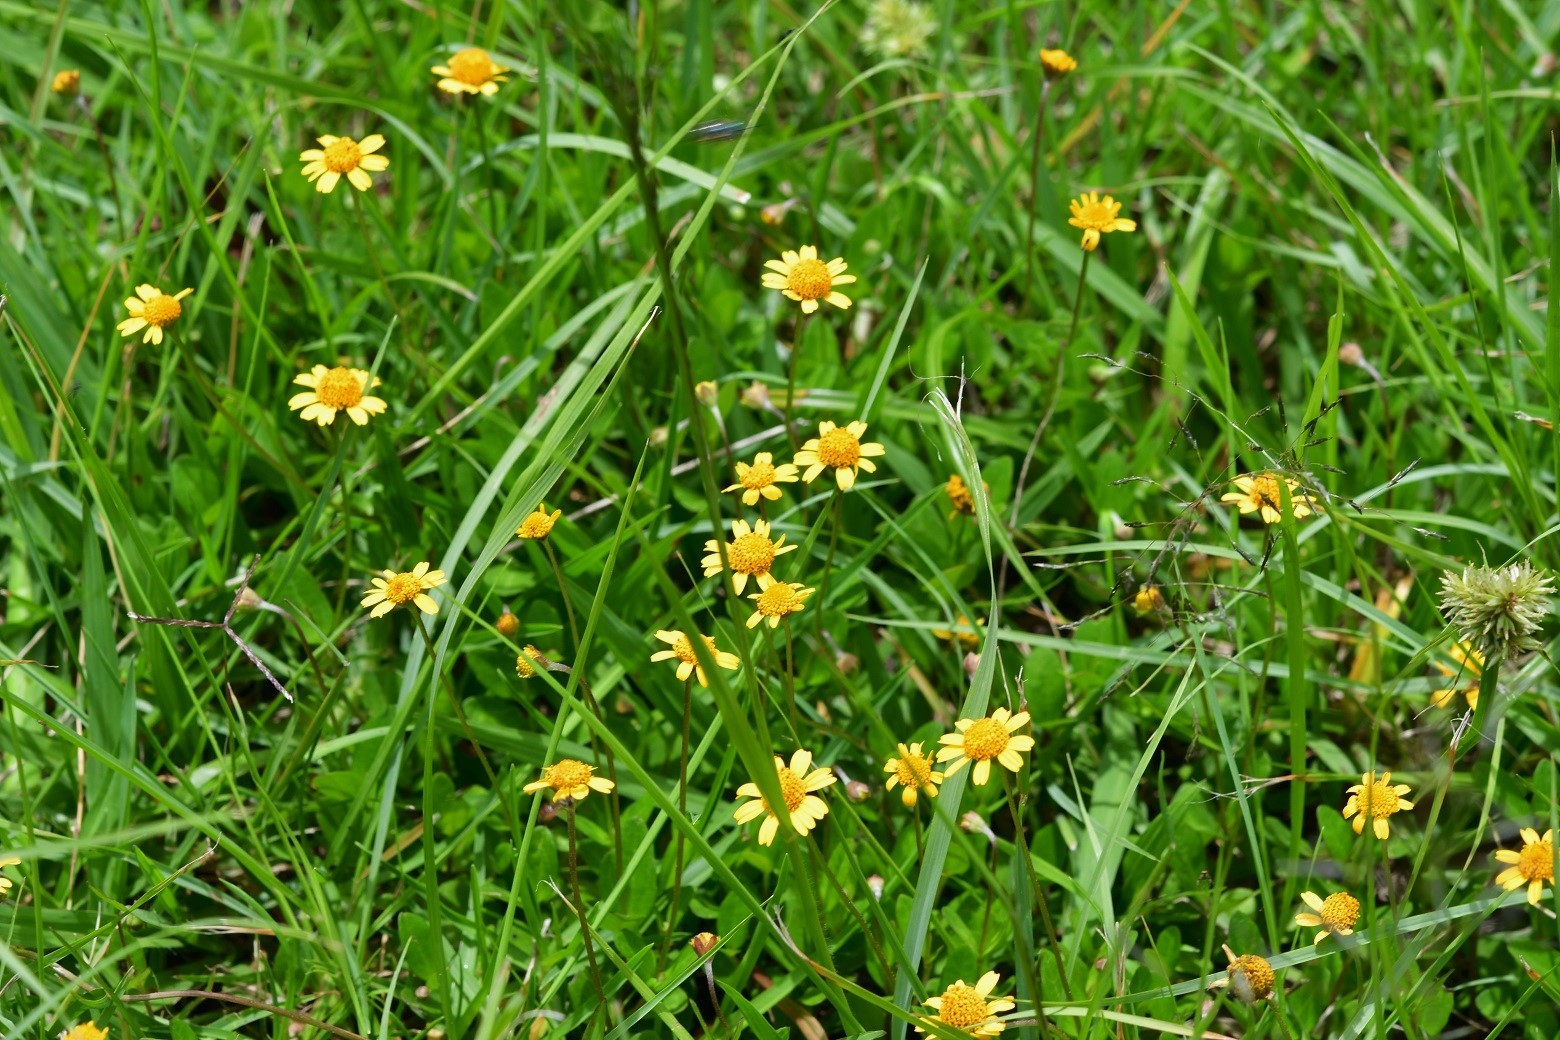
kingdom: Plantae
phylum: Tracheophyta
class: Magnoliopsida
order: Asterales
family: Asteraceae
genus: Acmella
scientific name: Acmella repens
